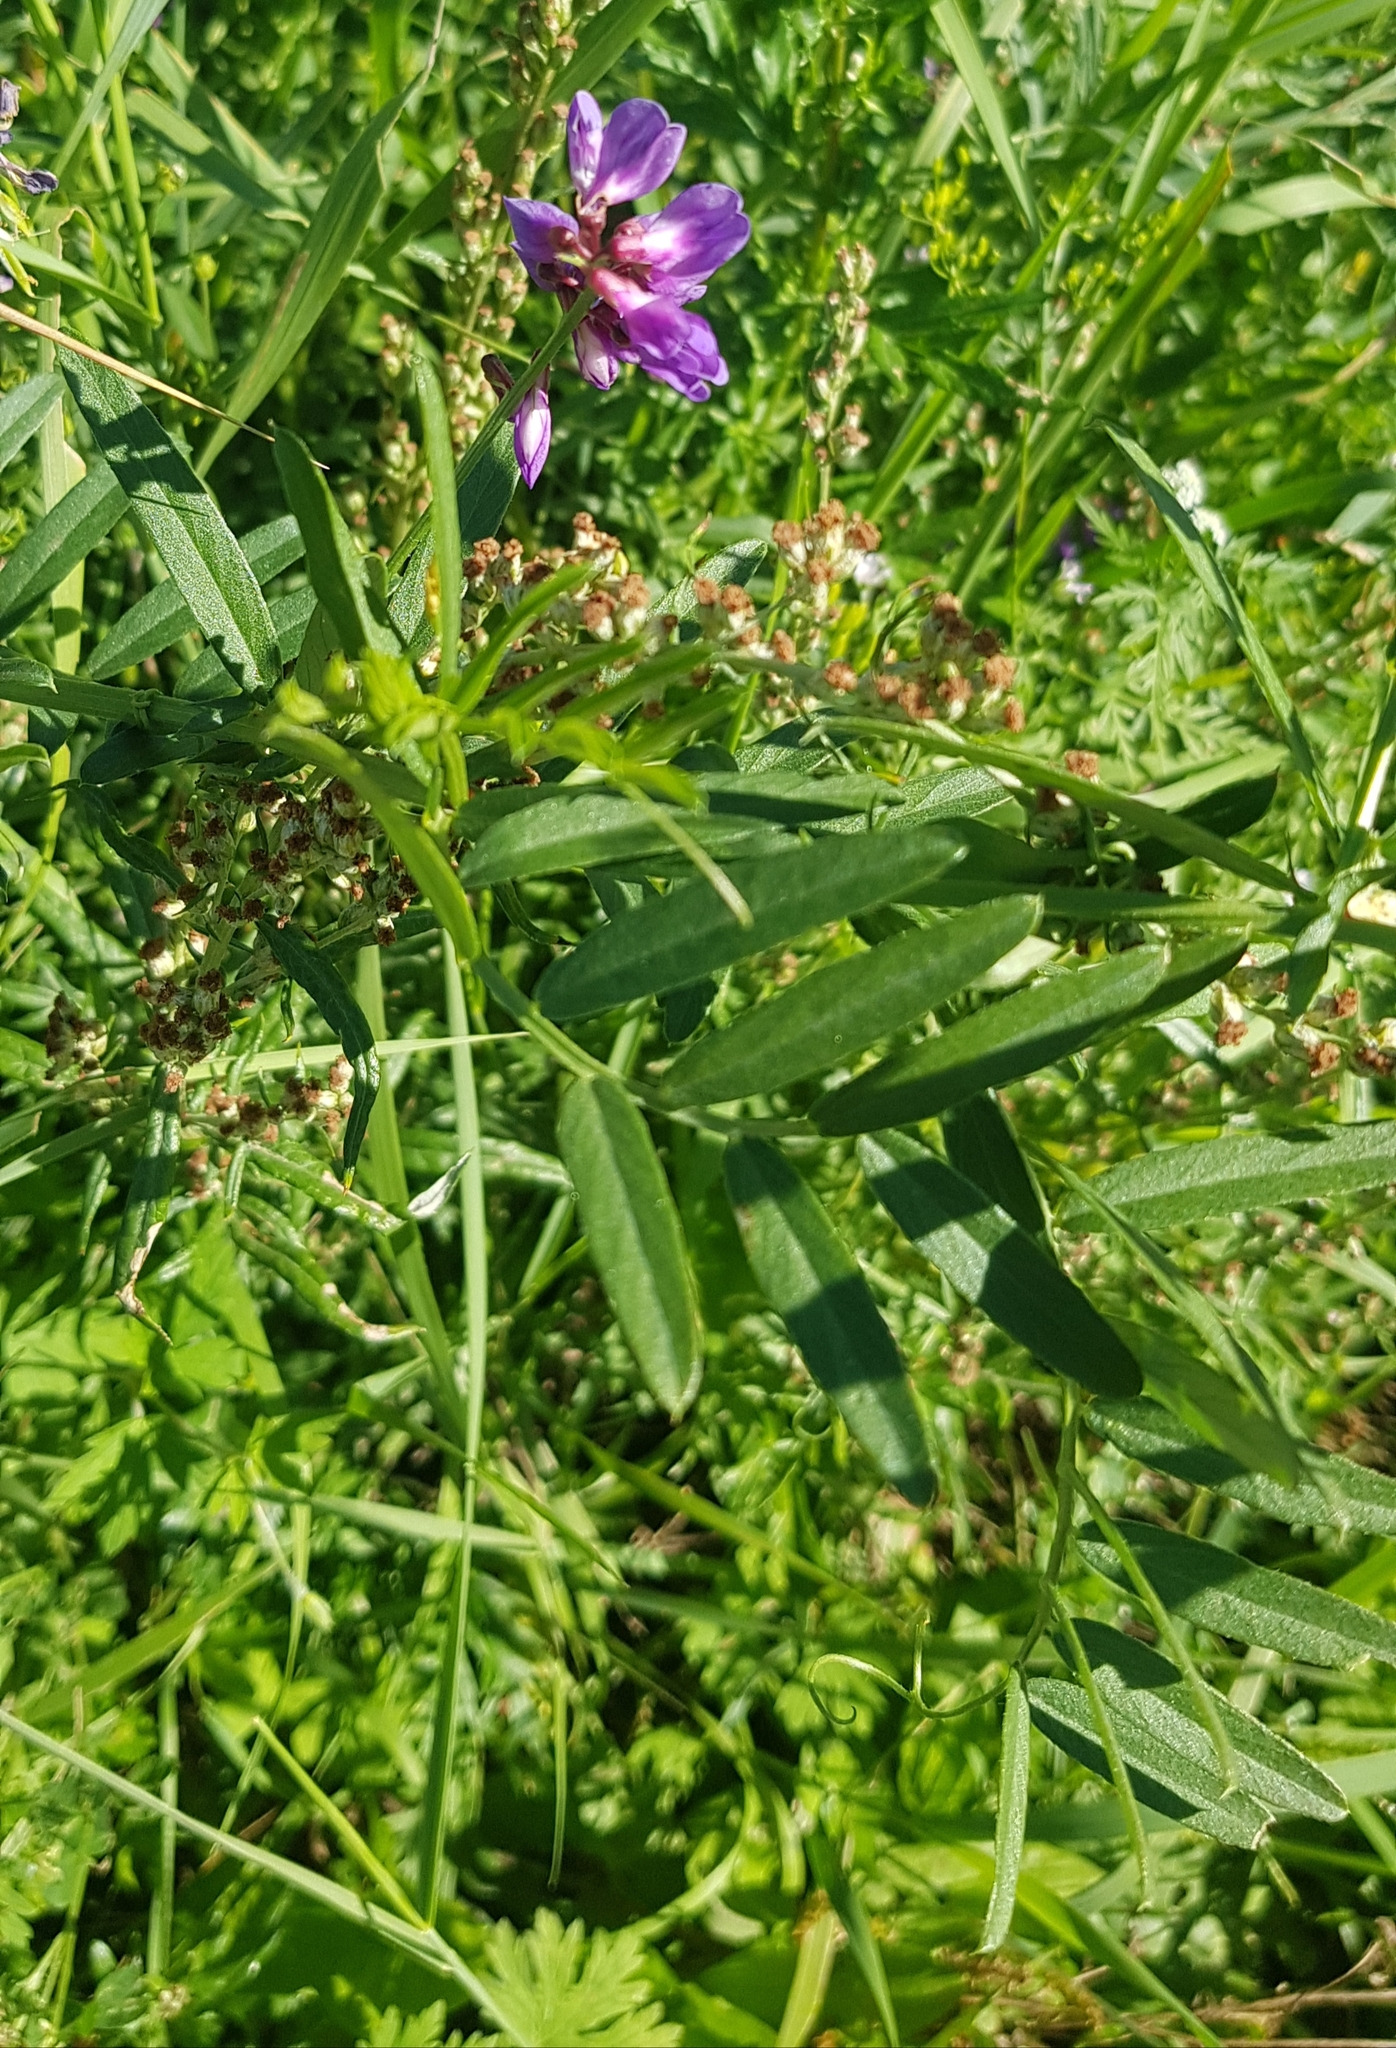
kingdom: Plantae
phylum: Tracheophyta
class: Magnoliopsida
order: Fabales
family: Fabaceae
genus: Vicia
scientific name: Vicia amoena
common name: Cheder ebs
